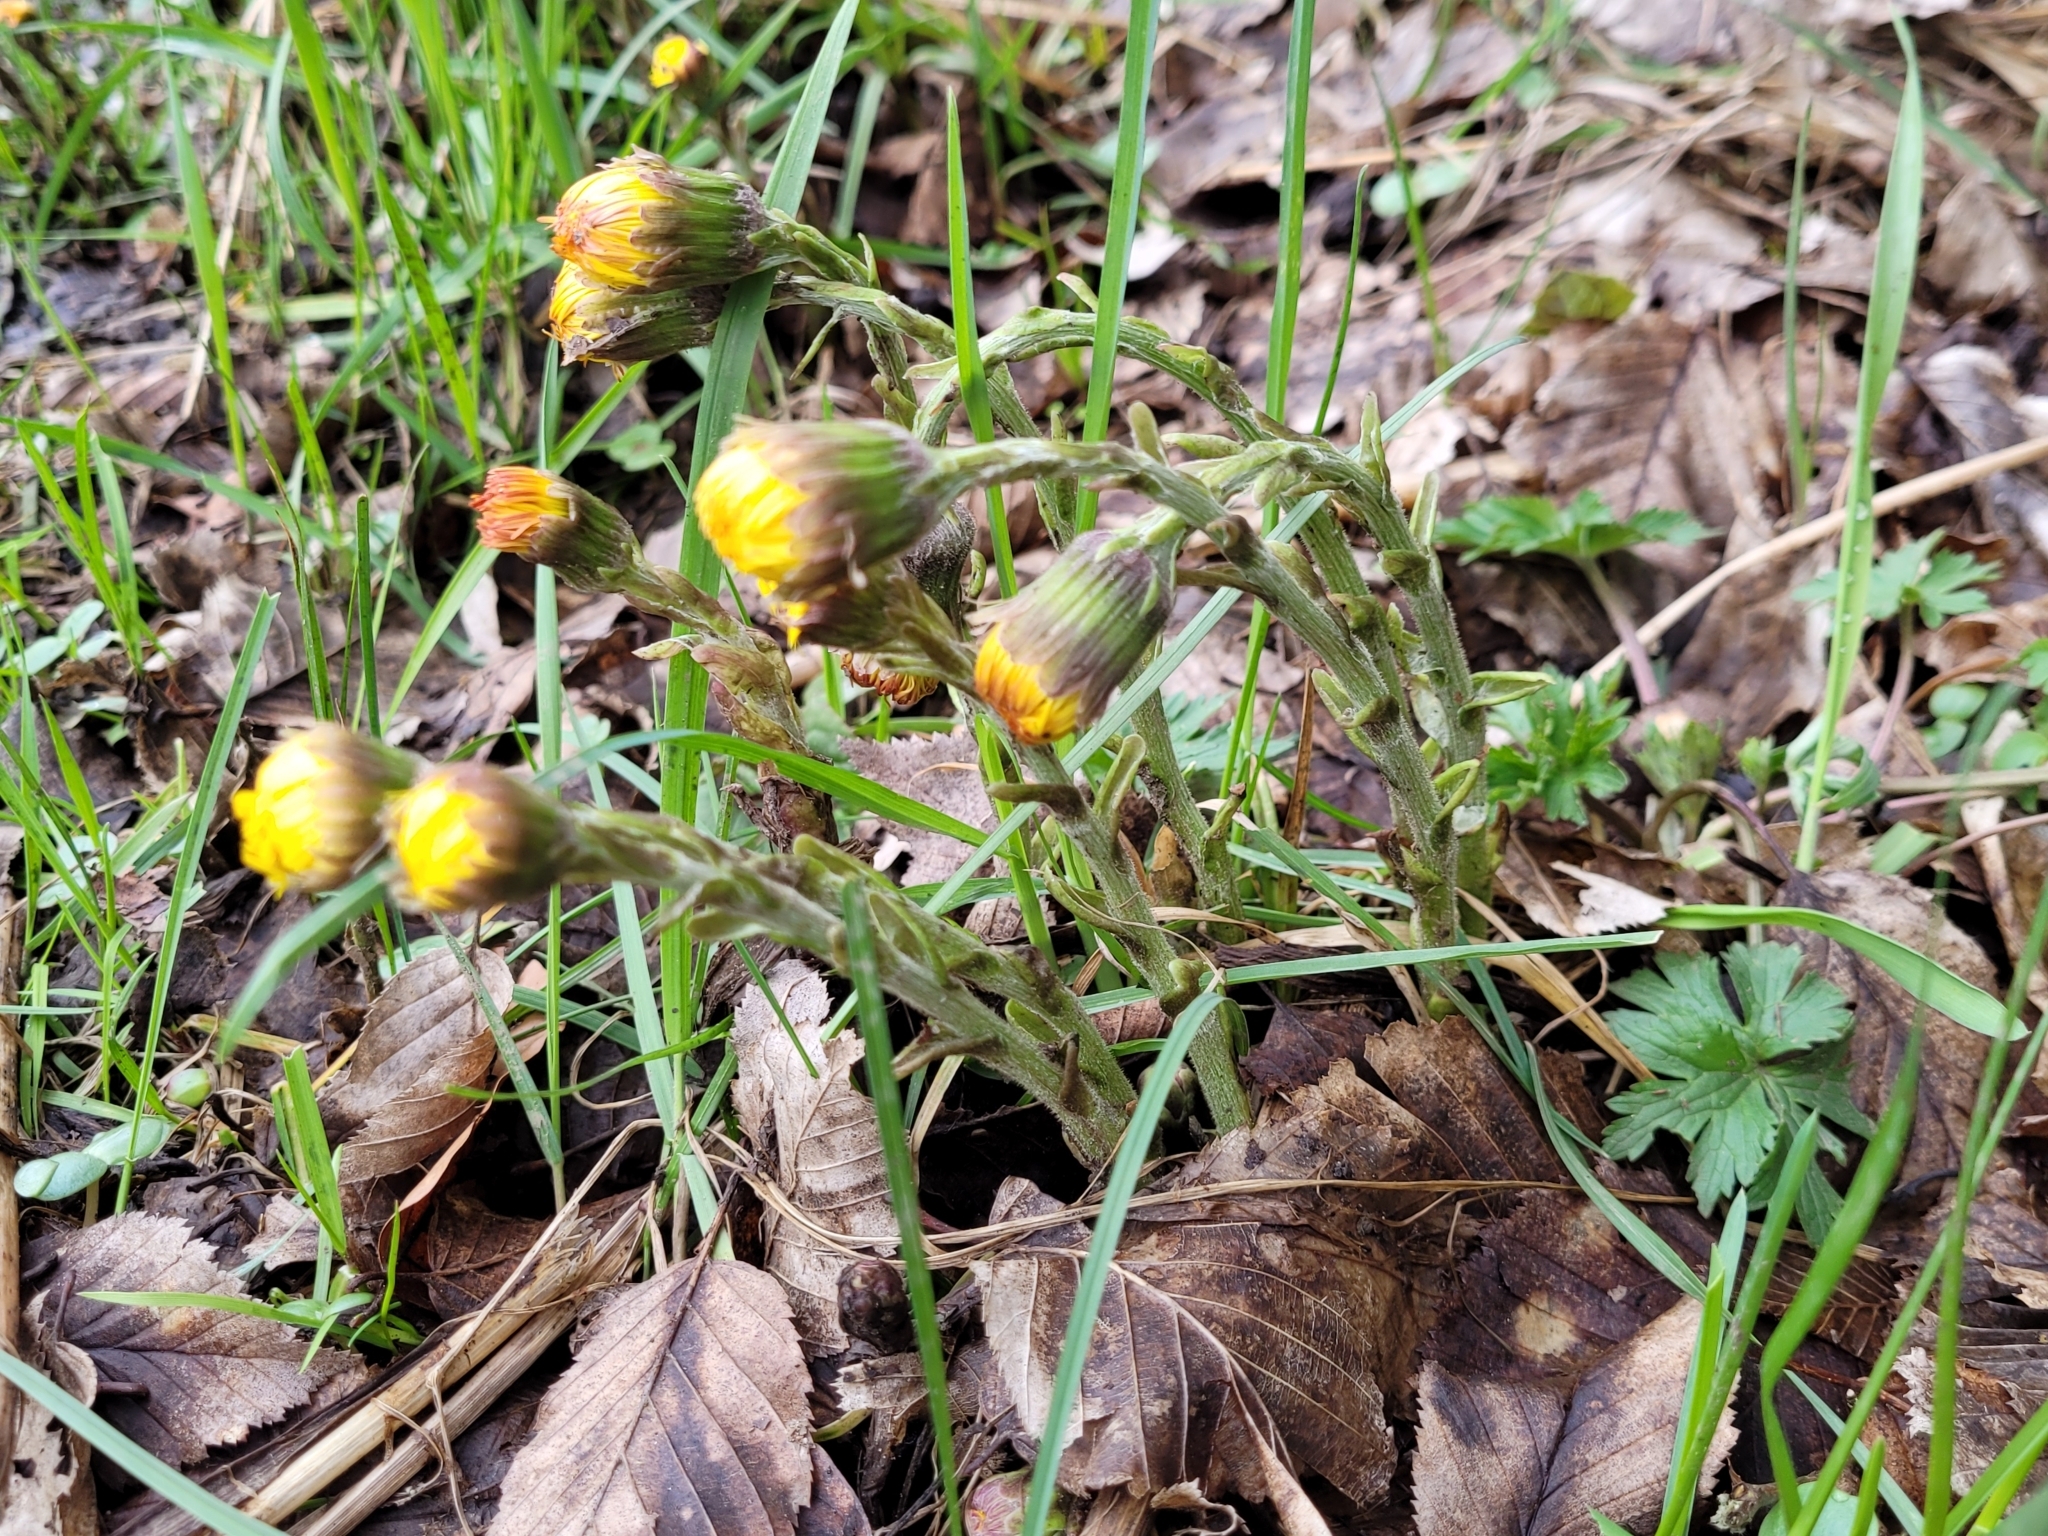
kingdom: Plantae
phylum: Tracheophyta
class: Magnoliopsida
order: Asterales
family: Asteraceae
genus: Tussilago
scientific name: Tussilago farfara
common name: Coltsfoot
